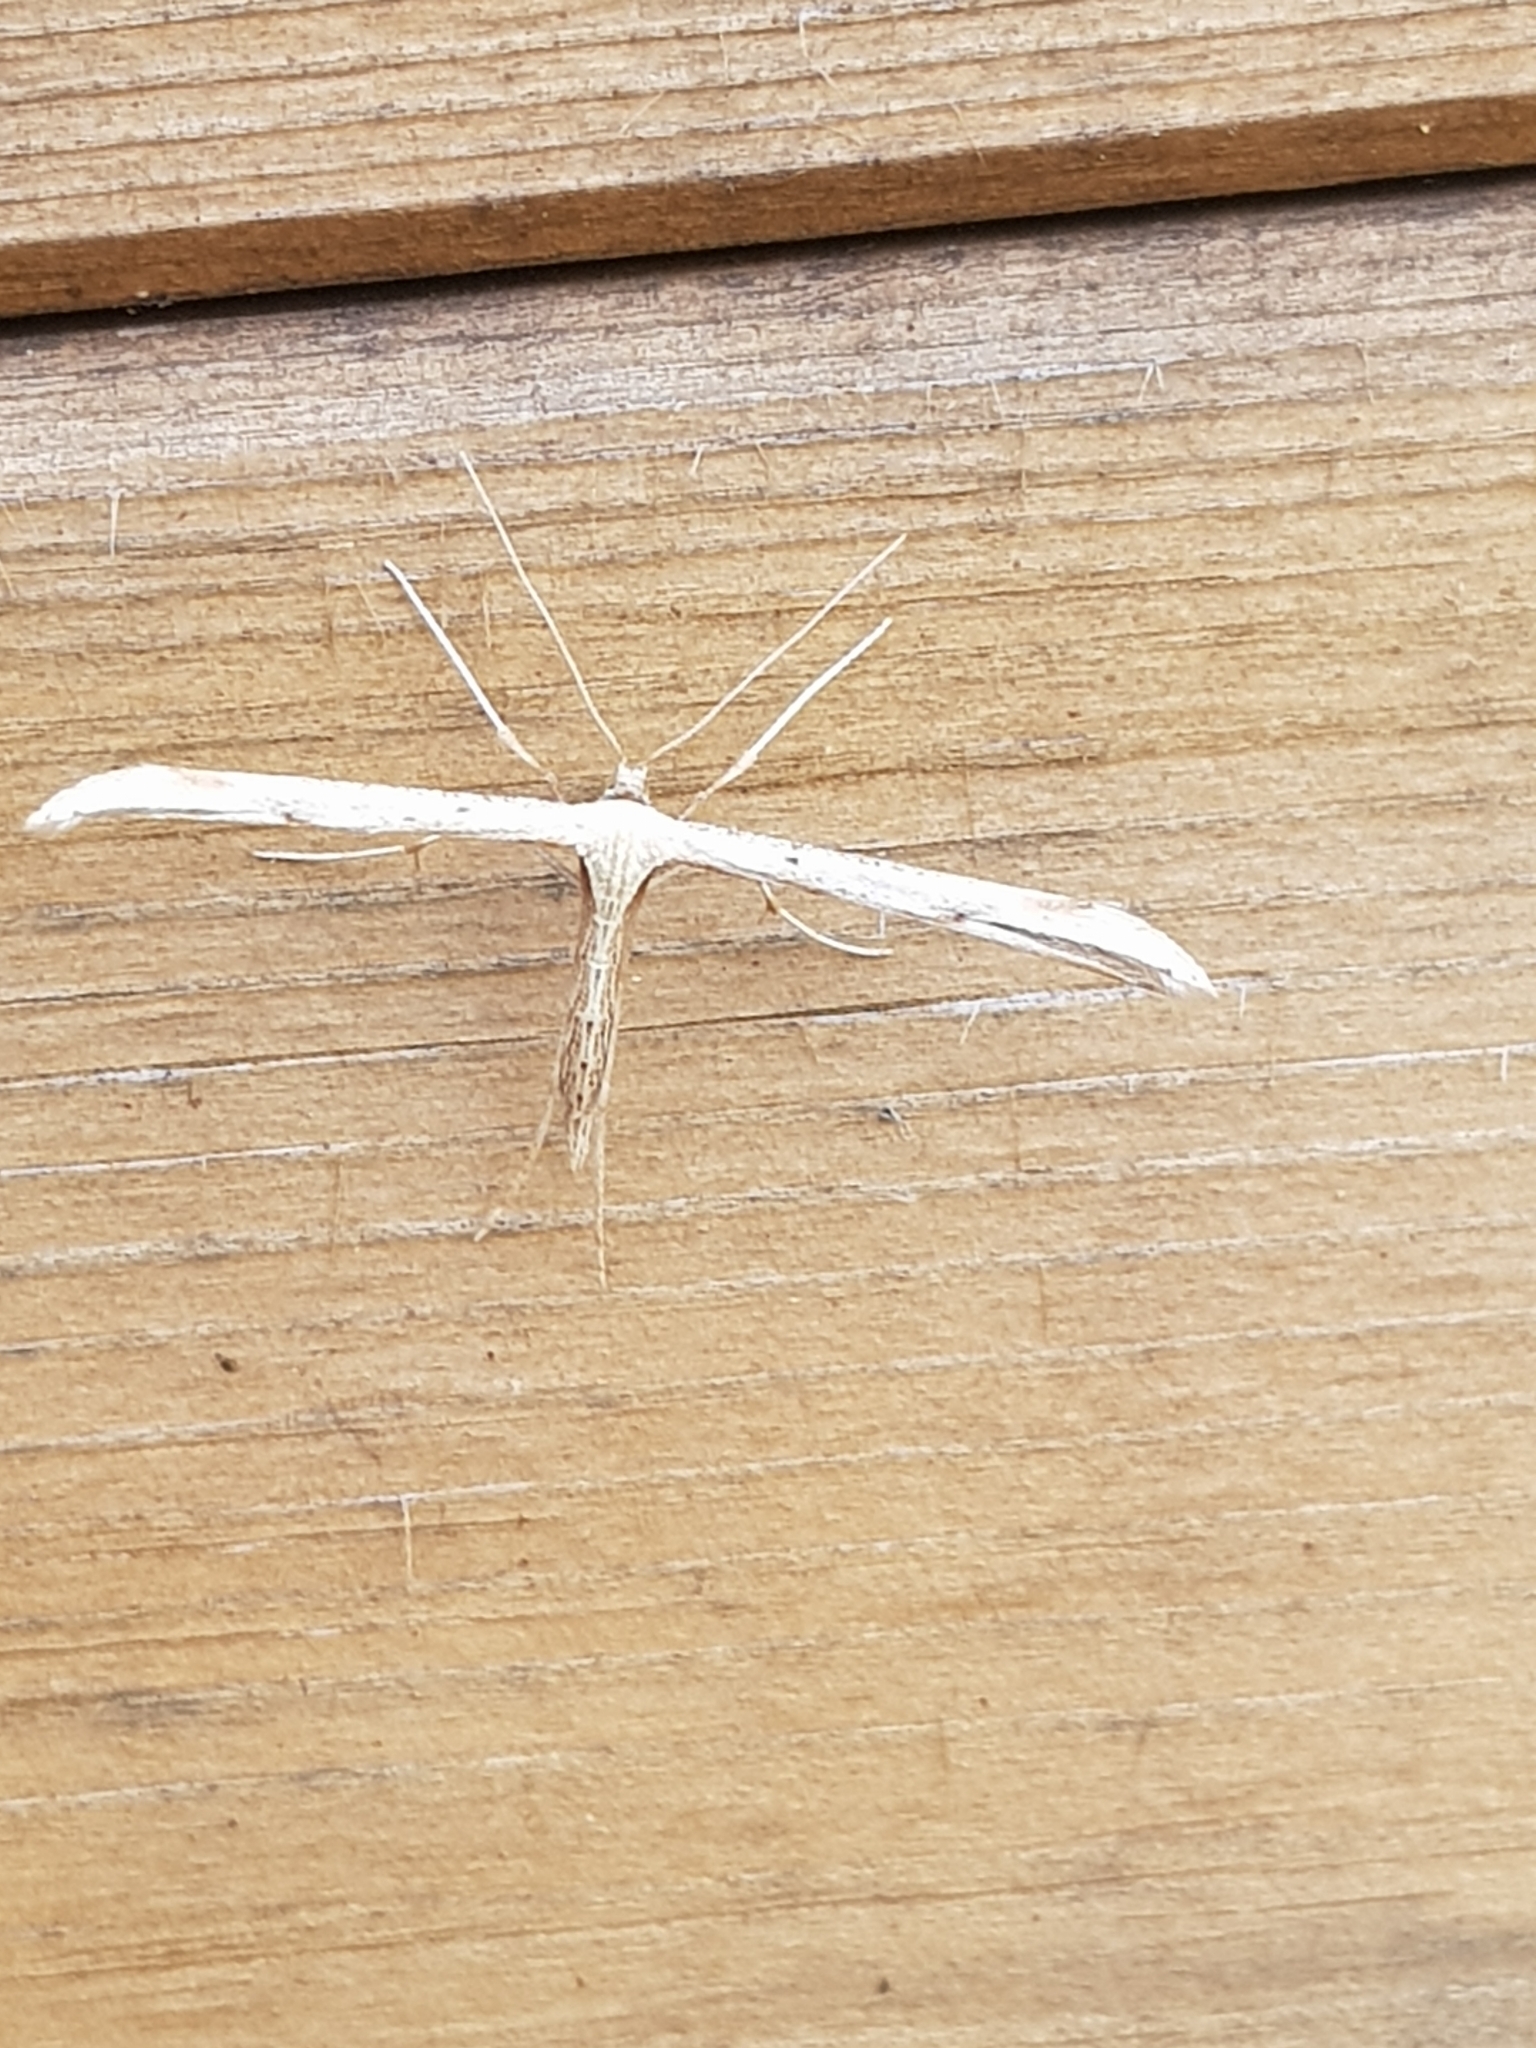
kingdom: Animalia
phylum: Arthropoda
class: Insecta
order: Lepidoptera
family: Pterophoridae
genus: Emmelina
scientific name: Emmelina monodactyla
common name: Common plume
